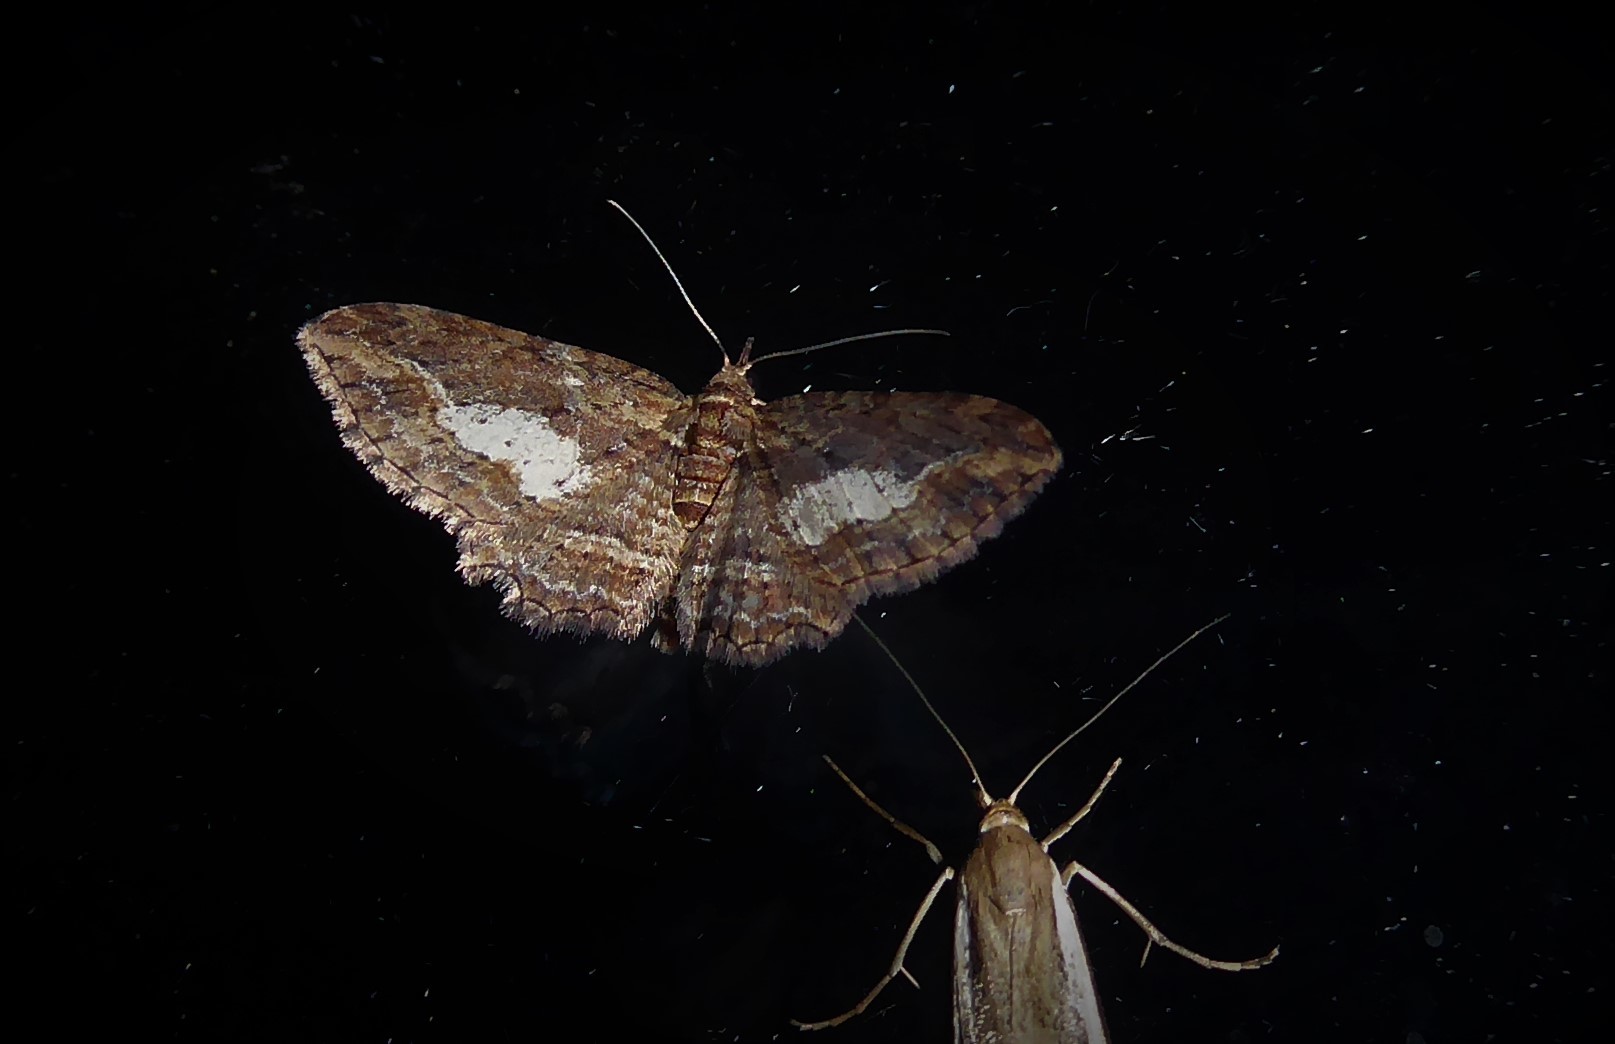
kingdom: Animalia
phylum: Arthropoda
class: Insecta
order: Lepidoptera
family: Geometridae
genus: Chloroclystis
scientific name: Chloroclystis filata
